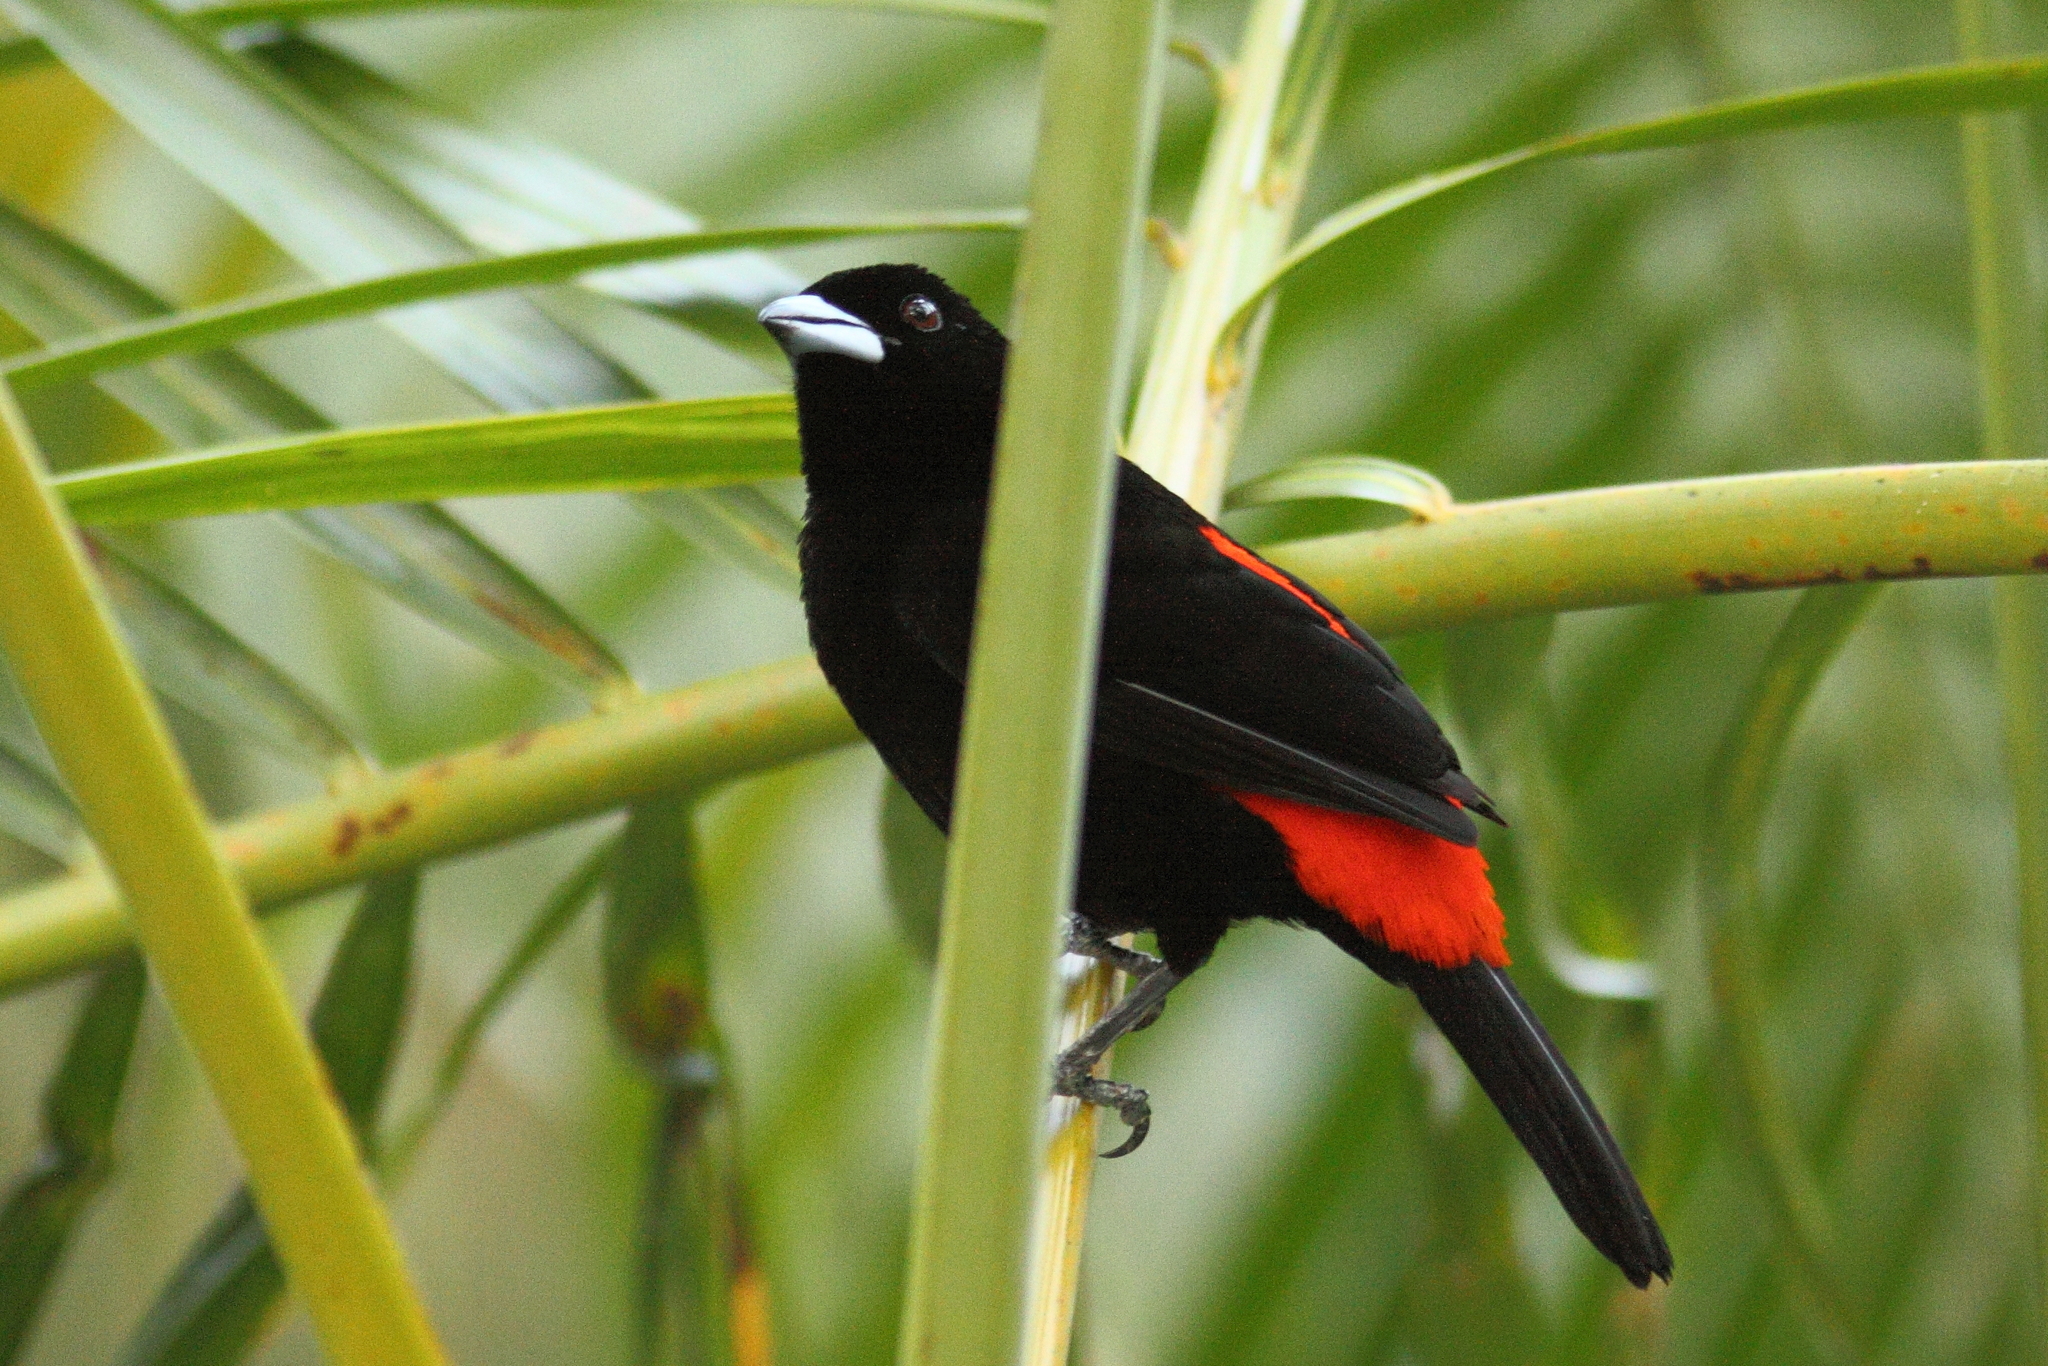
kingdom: Animalia
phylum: Chordata
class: Aves
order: Passeriformes
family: Thraupidae
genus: Ramphocelus
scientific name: Ramphocelus passerinii
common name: Passerini's tanager
